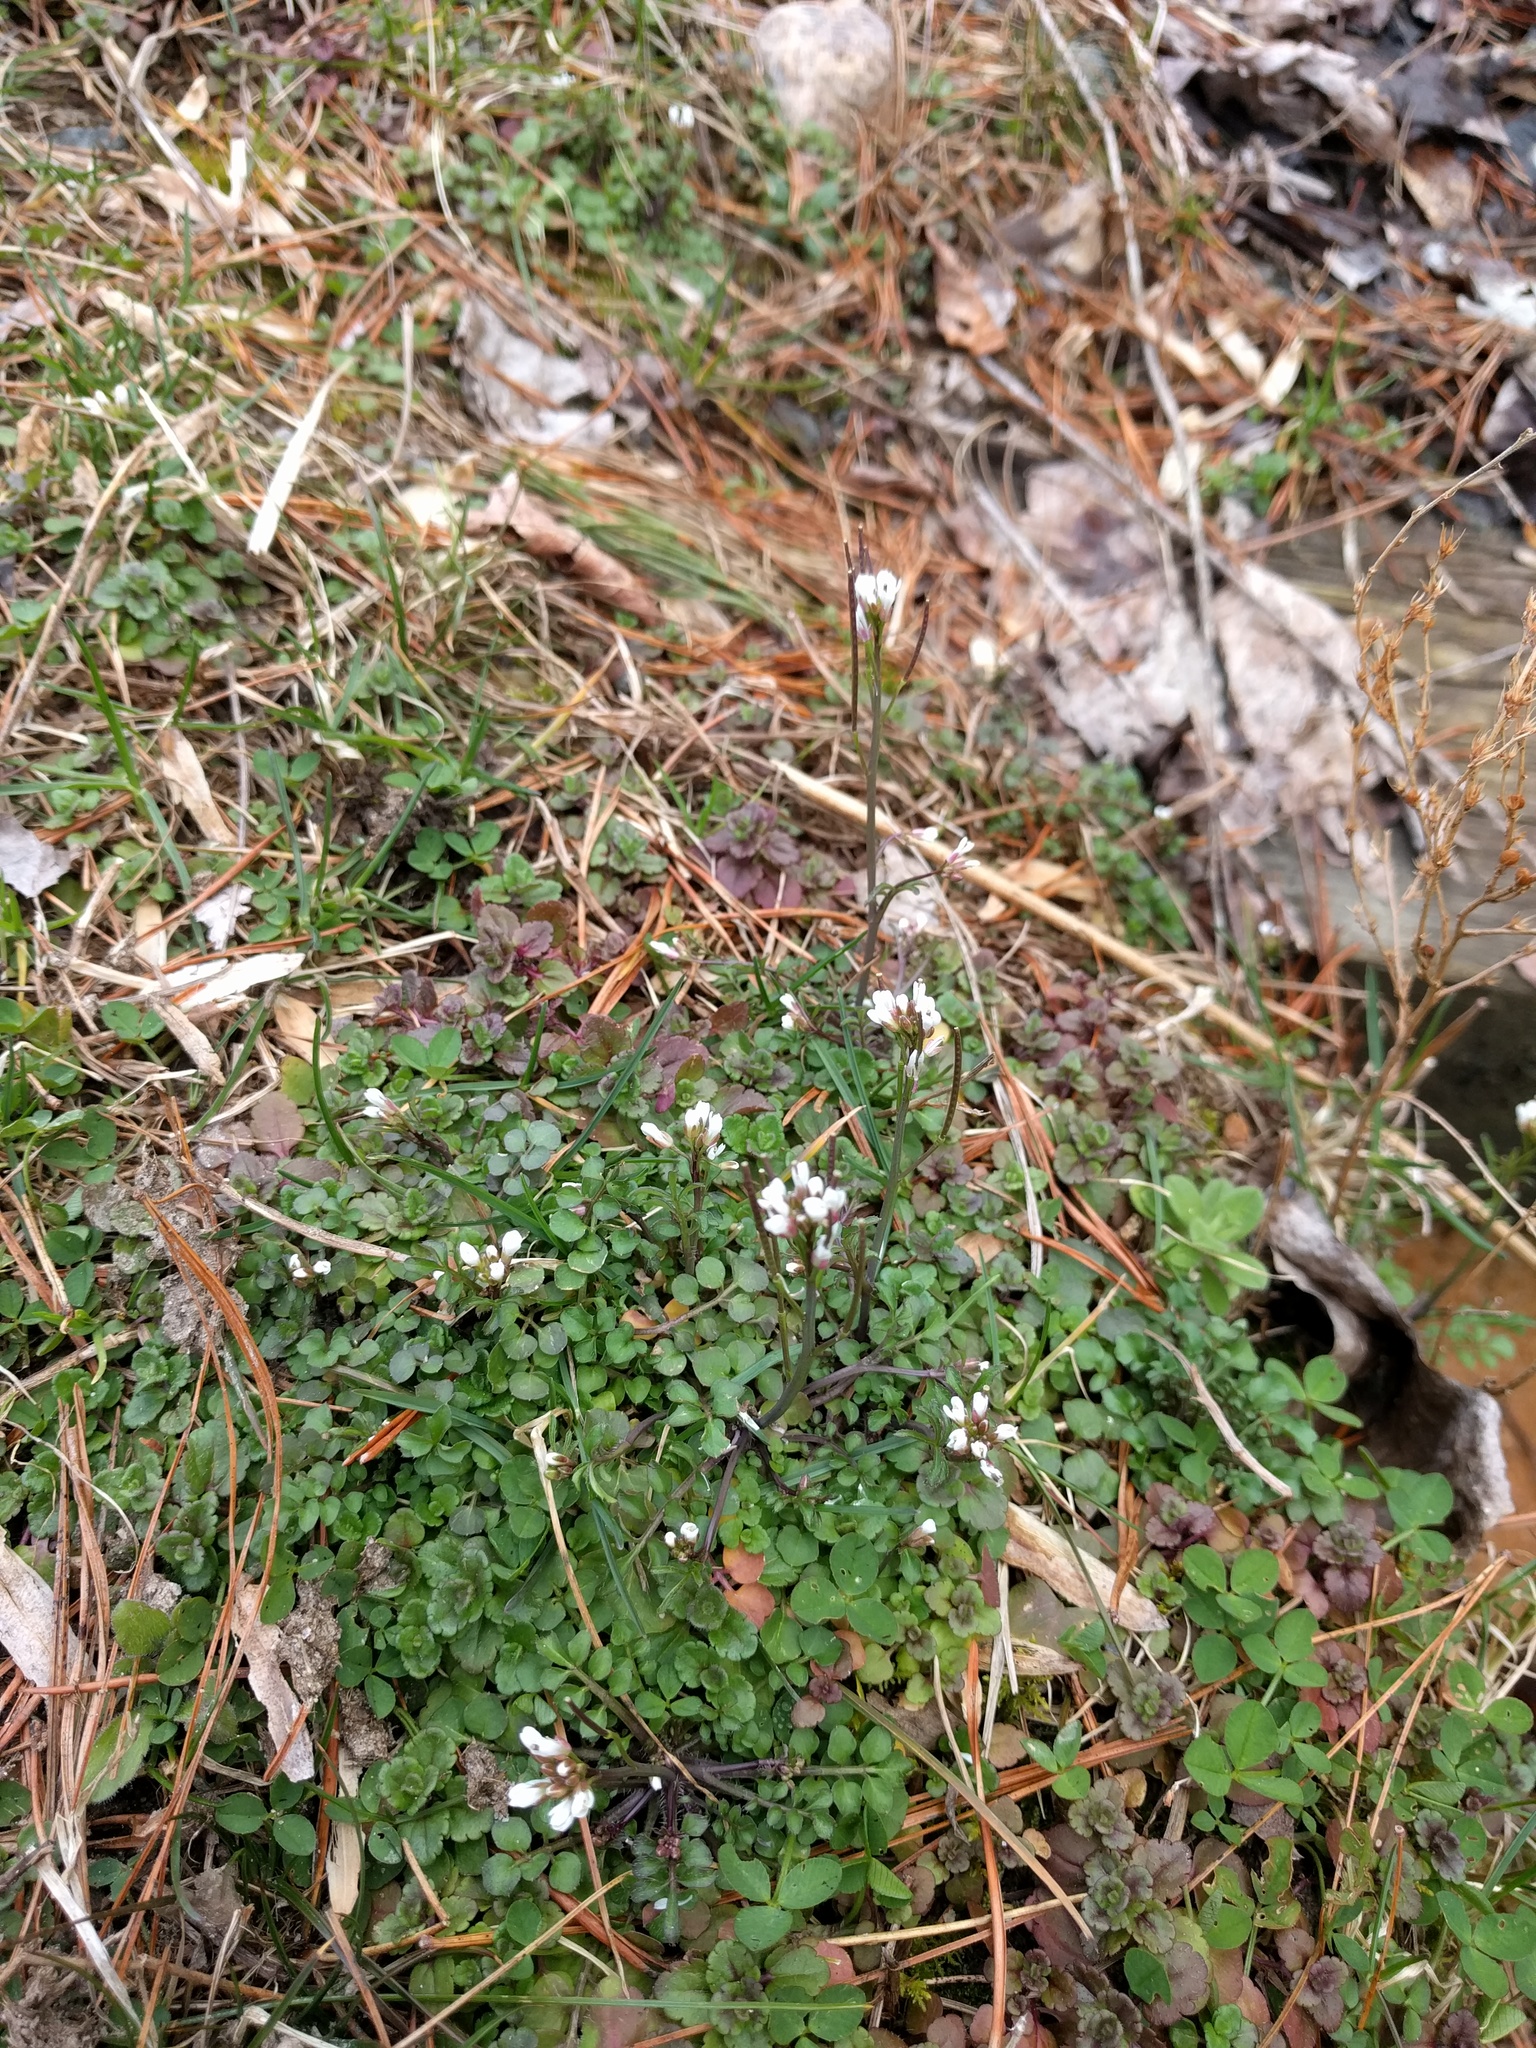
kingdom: Plantae
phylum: Tracheophyta
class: Magnoliopsida
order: Brassicales
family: Brassicaceae
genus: Cardamine
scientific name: Cardamine hirsuta
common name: Hairy bittercress
